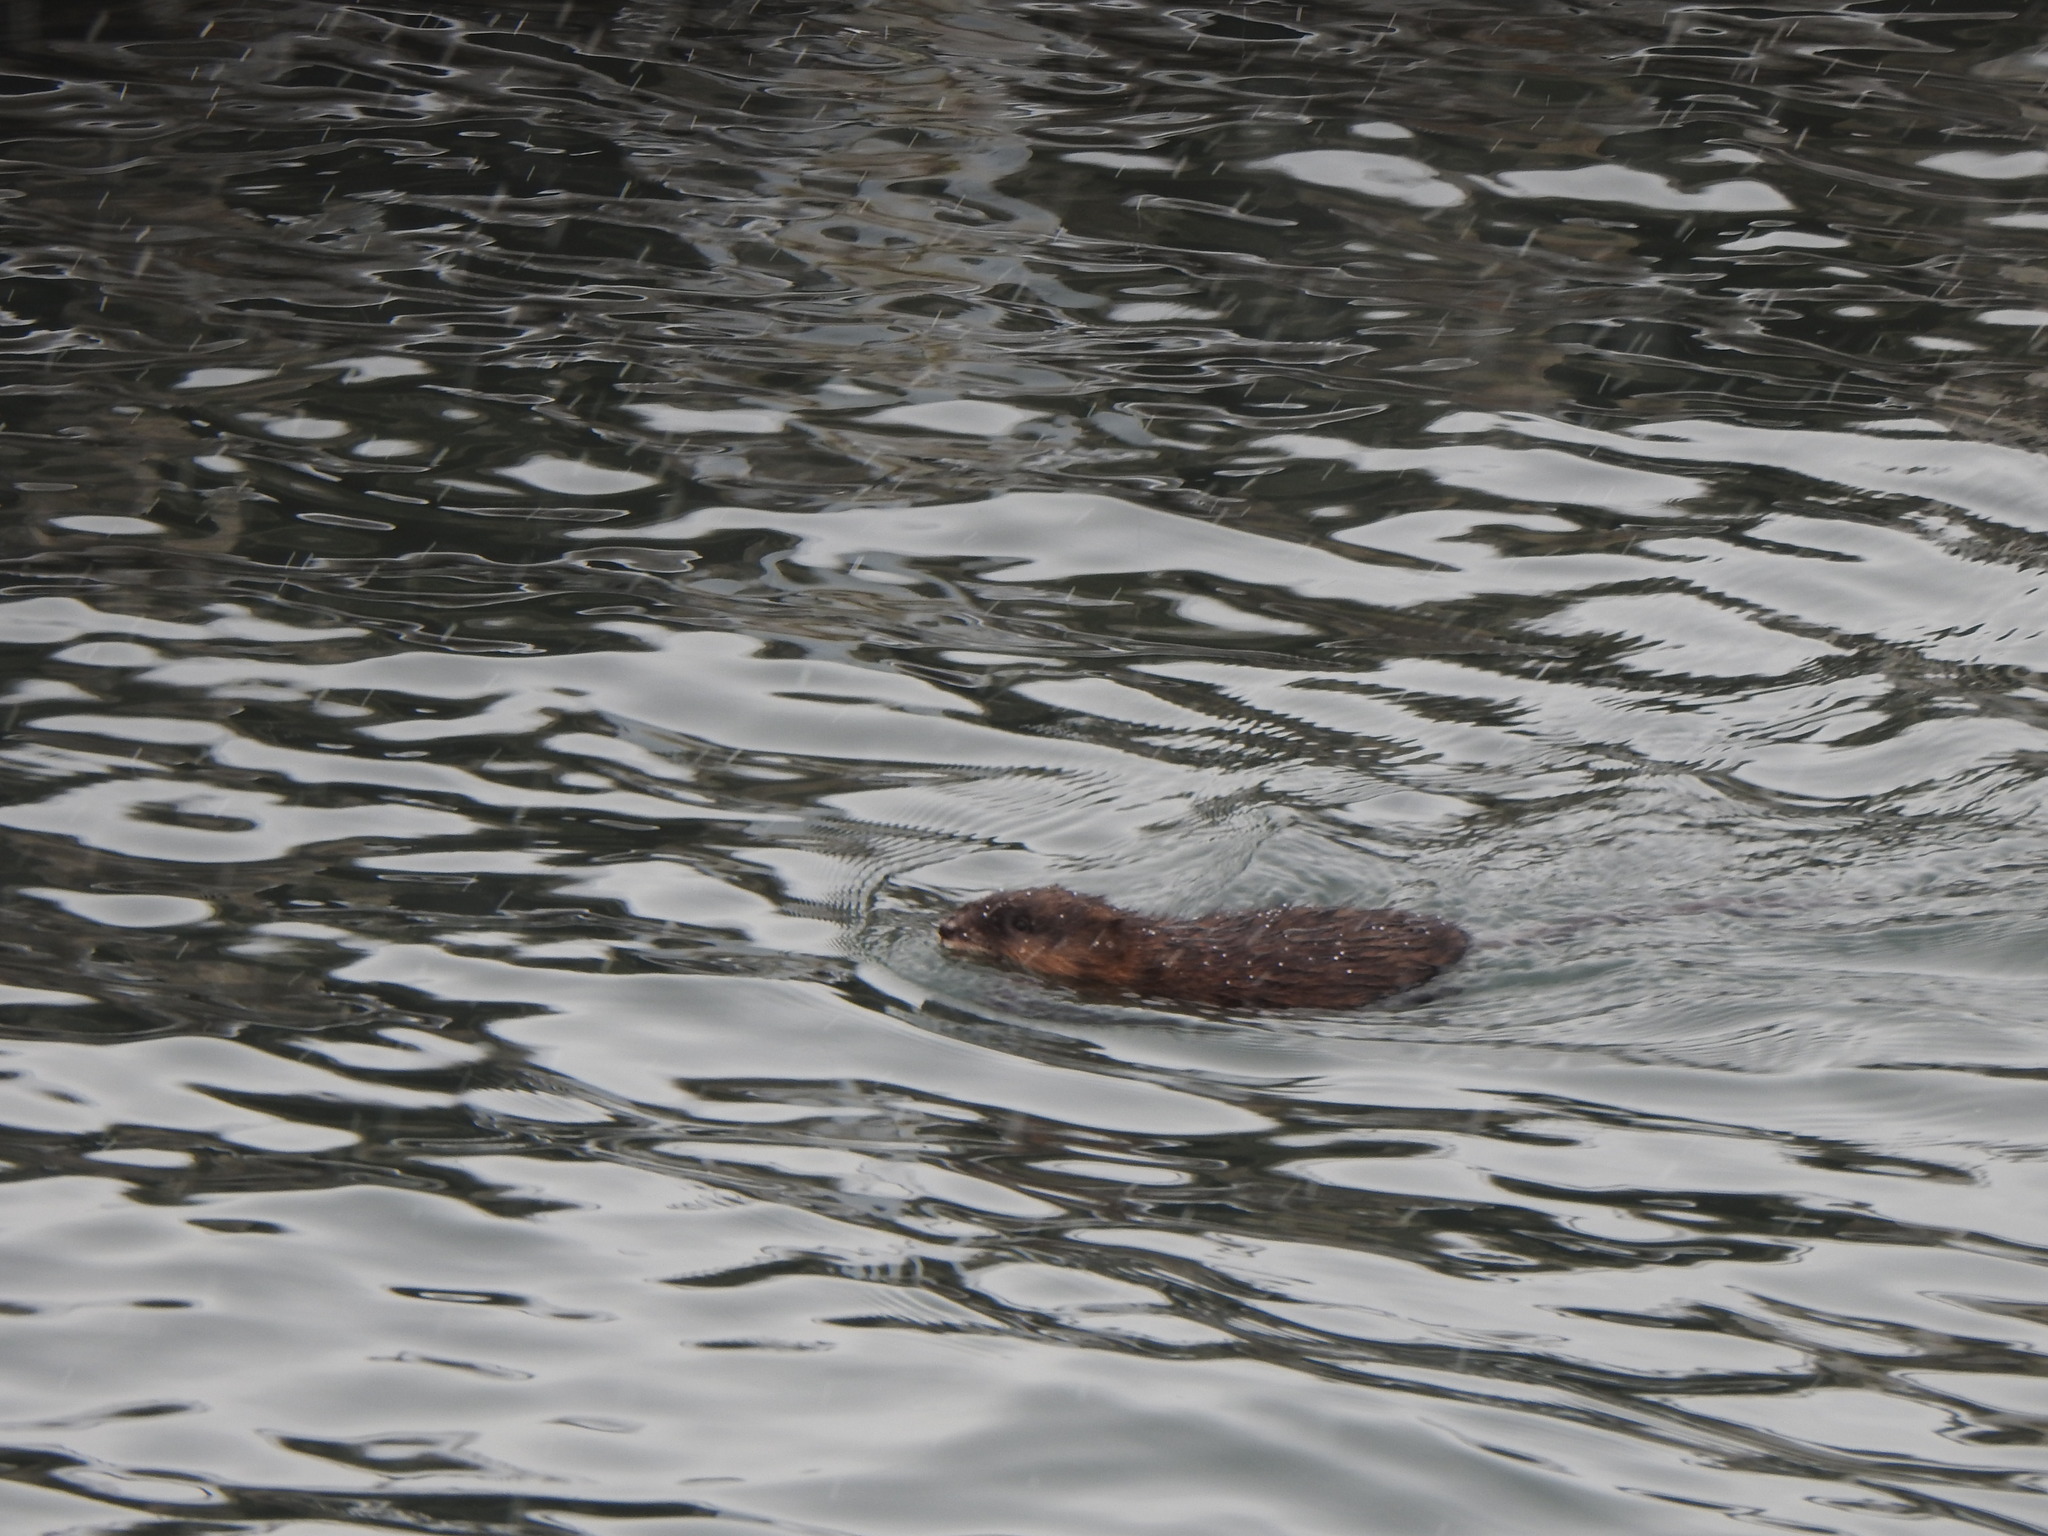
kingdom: Animalia
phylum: Chordata
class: Mammalia
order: Rodentia
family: Cricetidae
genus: Ondatra
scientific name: Ondatra zibethicus
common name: Muskrat
